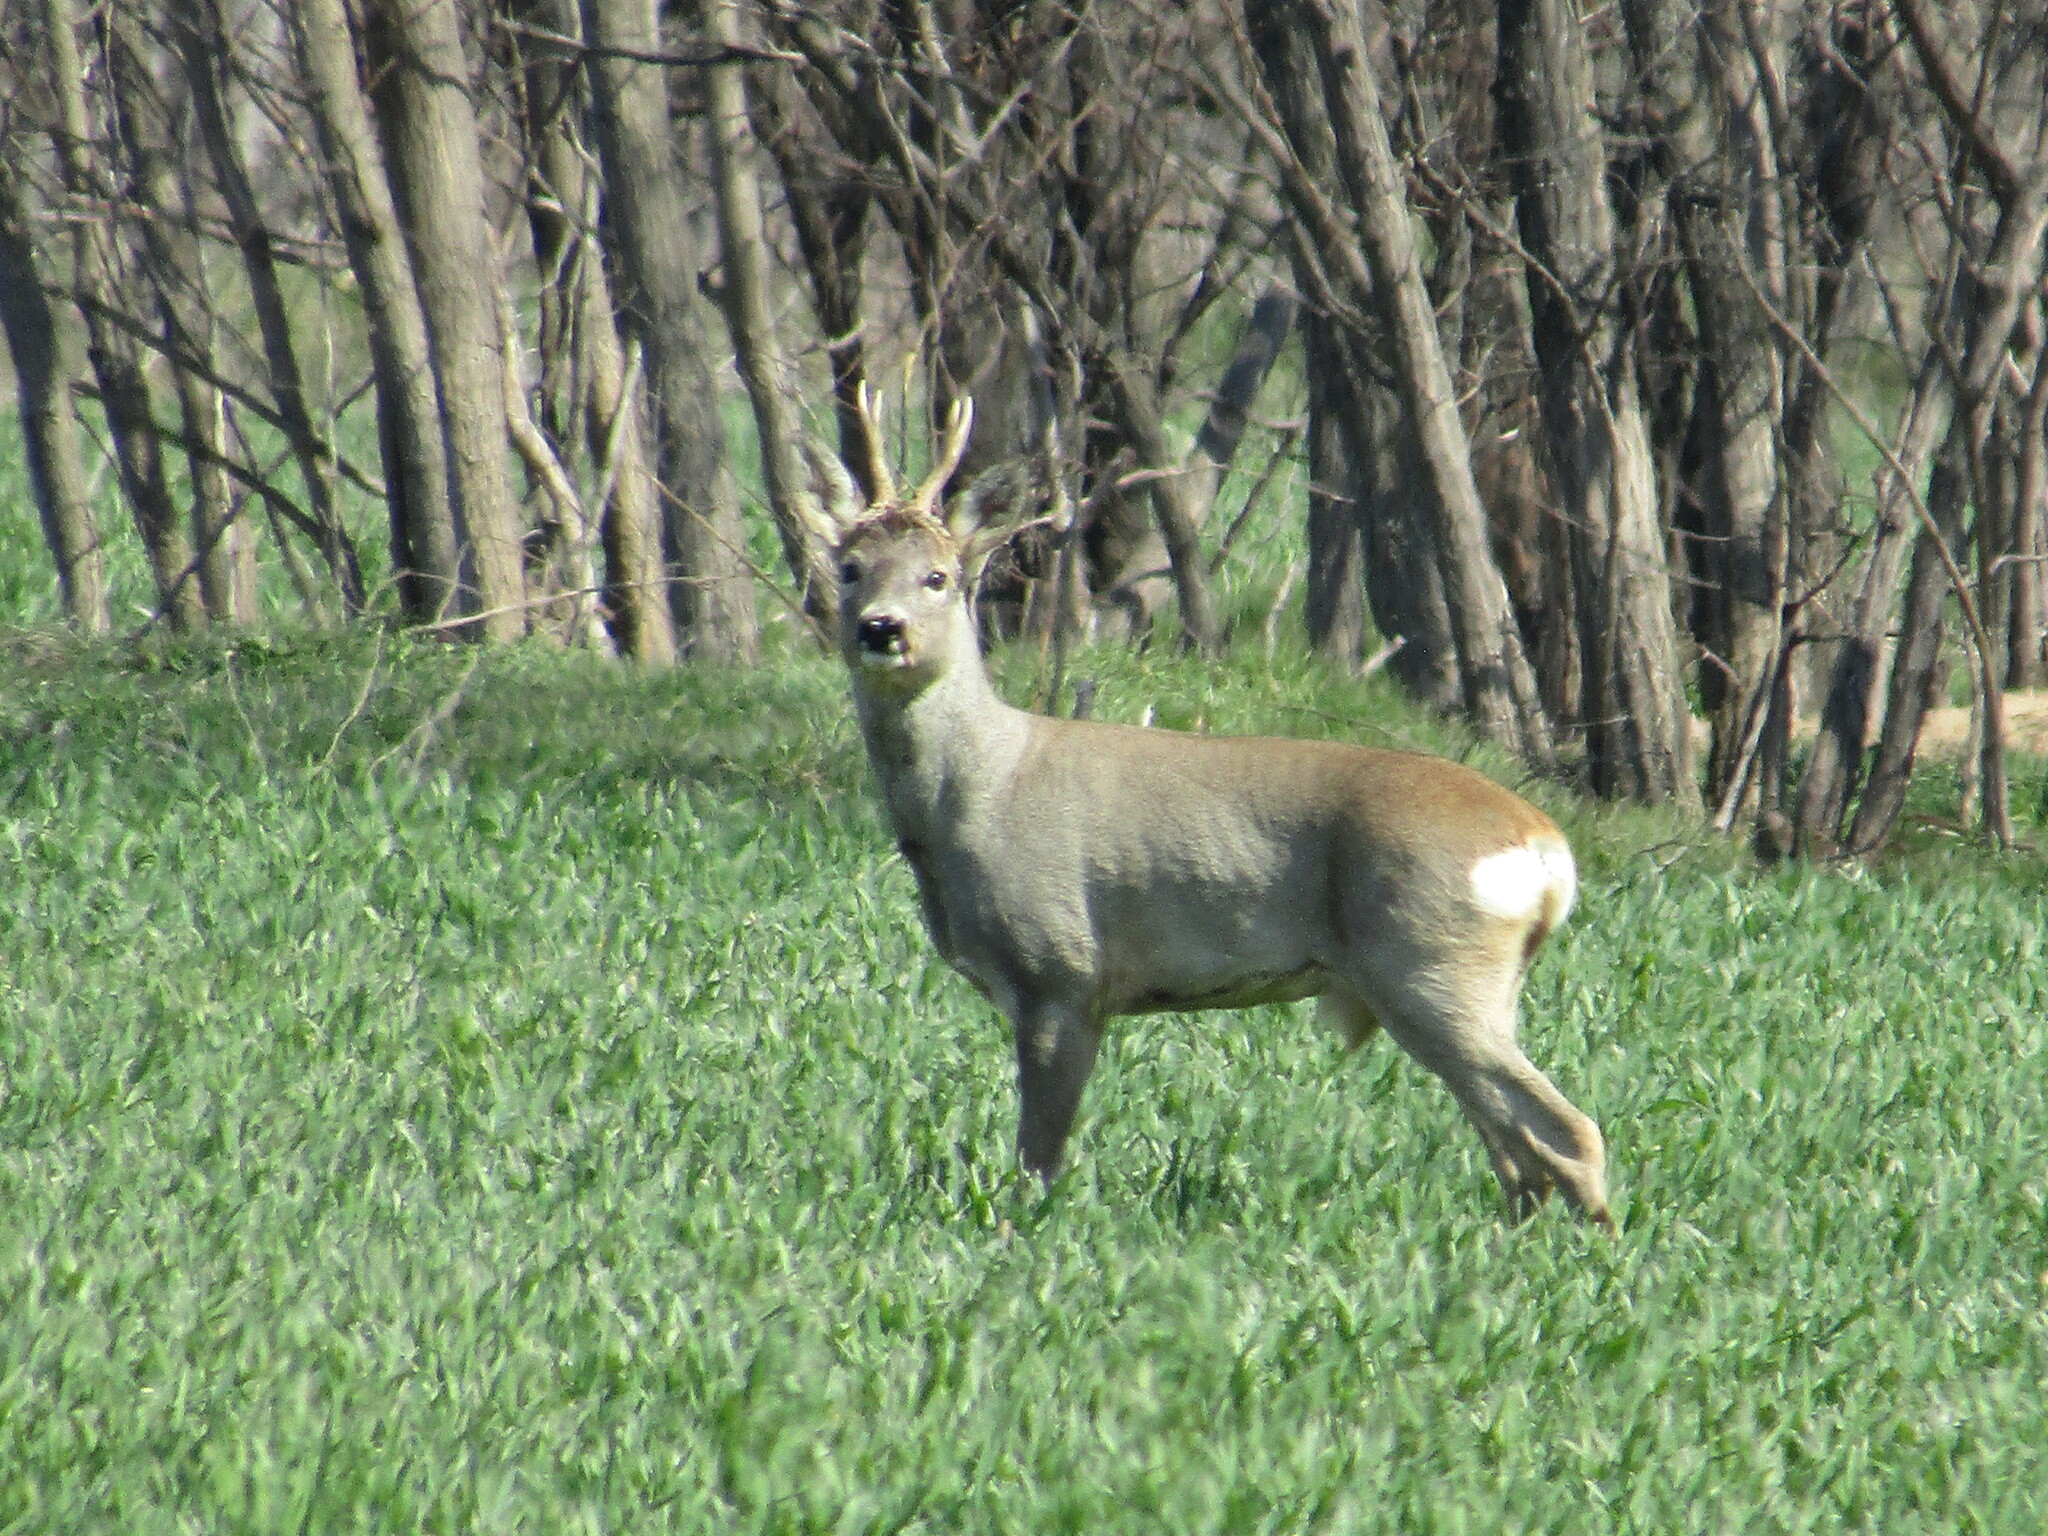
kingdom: Animalia
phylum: Chordata
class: Mammalia
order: Artiodactyla
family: Cervidae
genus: Capreolus
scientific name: Capreolus capreolus
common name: Western roe deer
